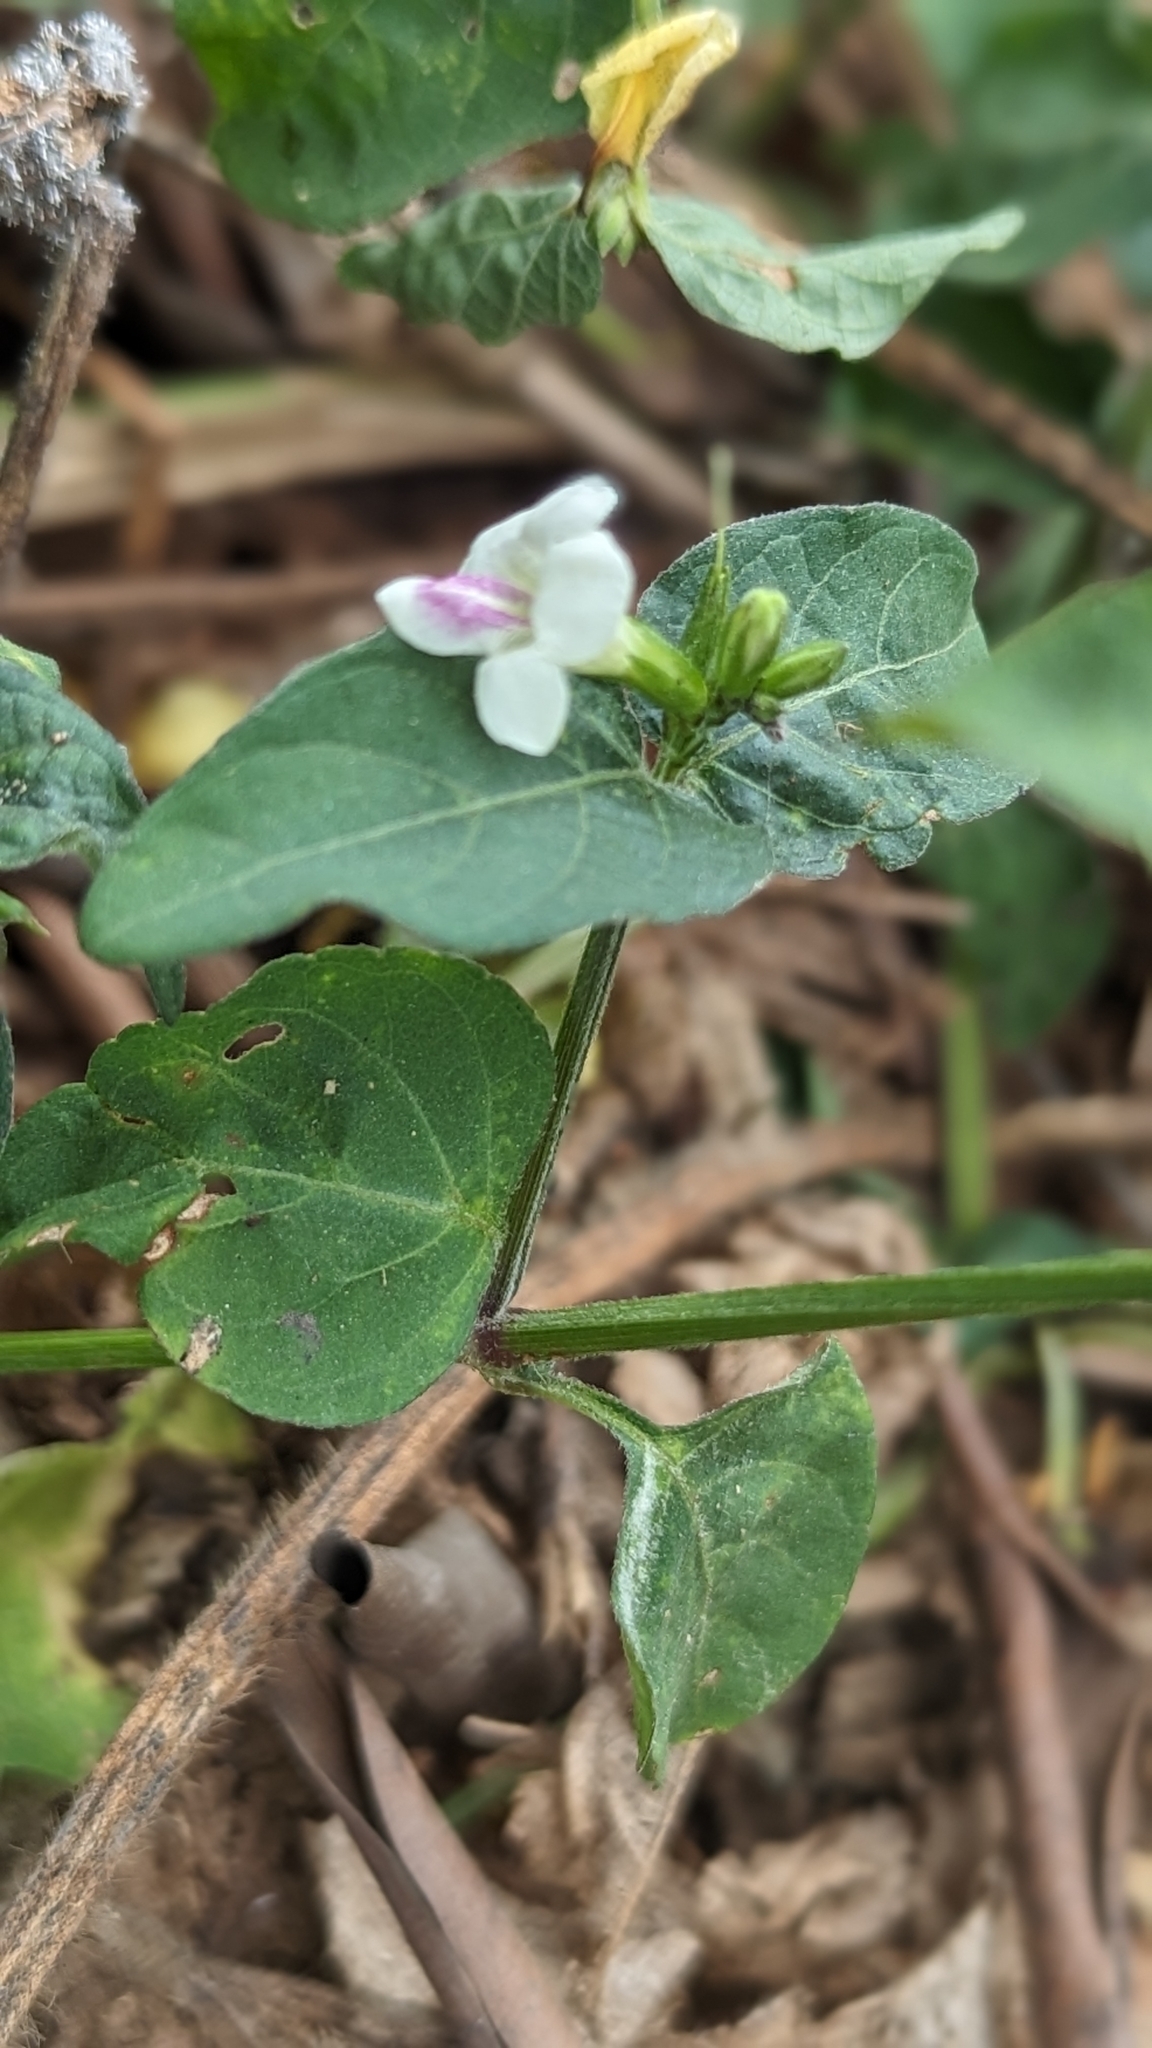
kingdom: Plantae
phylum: Tracheophyta
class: Magnoliopsida
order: Lamiales
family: Acanthaceae
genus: Asystasia
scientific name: Asystasia intrusa
